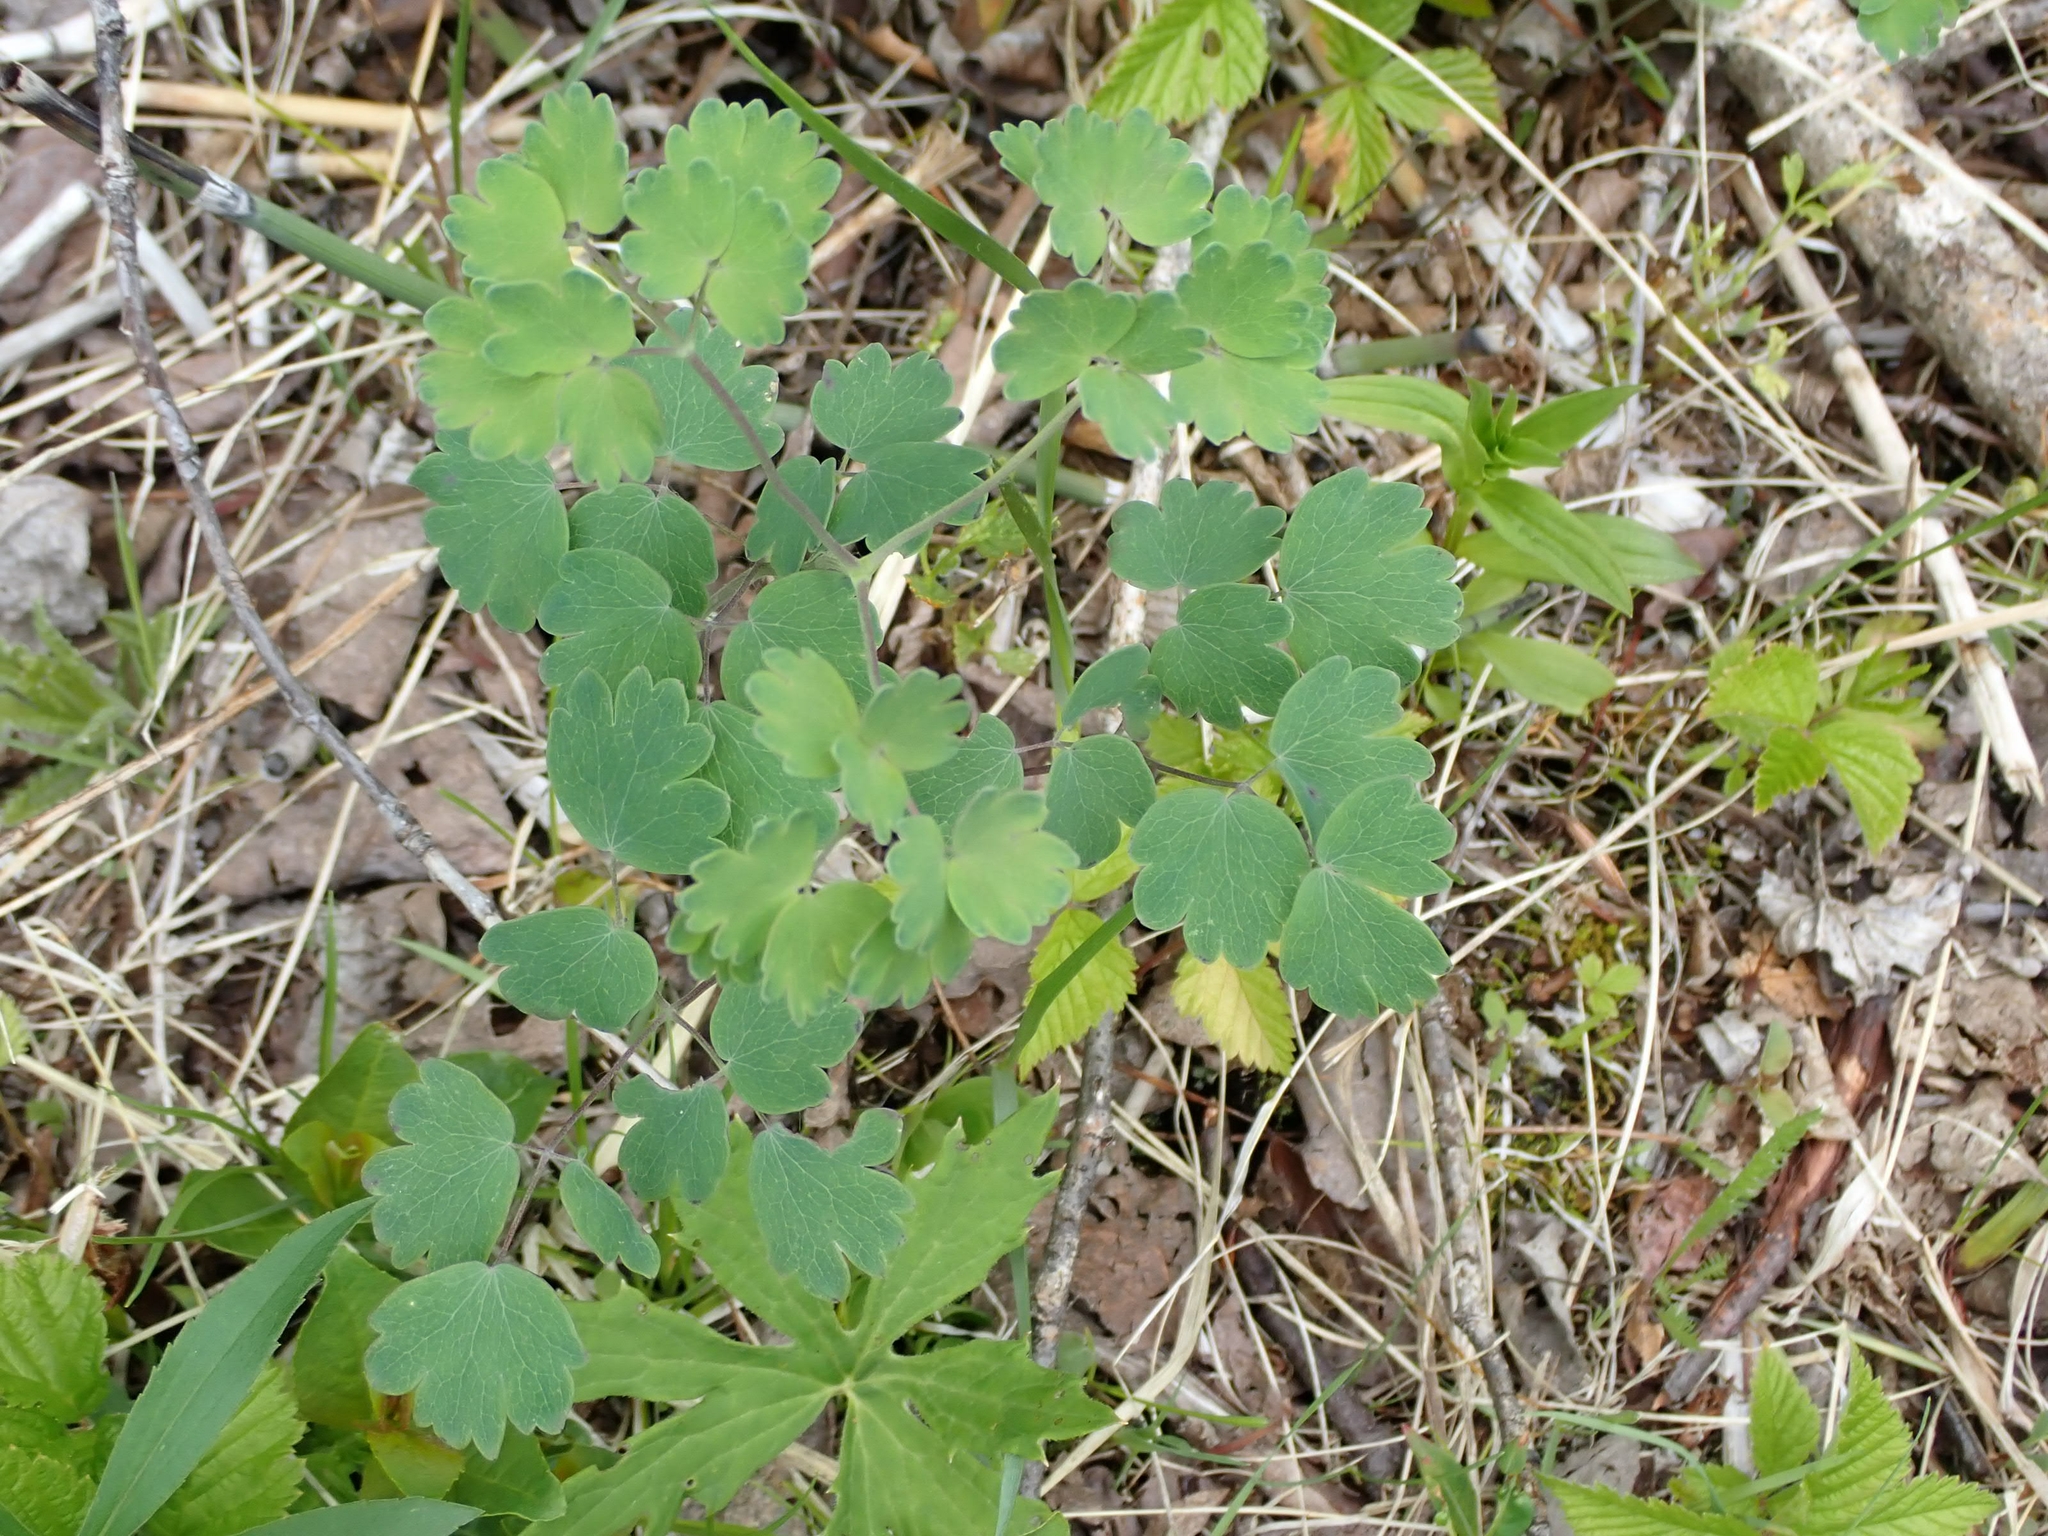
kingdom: Plantae
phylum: Tracheophyta
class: Magnoliopsida
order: Ranunculales
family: Ranunculaceae
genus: Thalictrum
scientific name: Thalictrum venulosum
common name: Early meadow-rue
